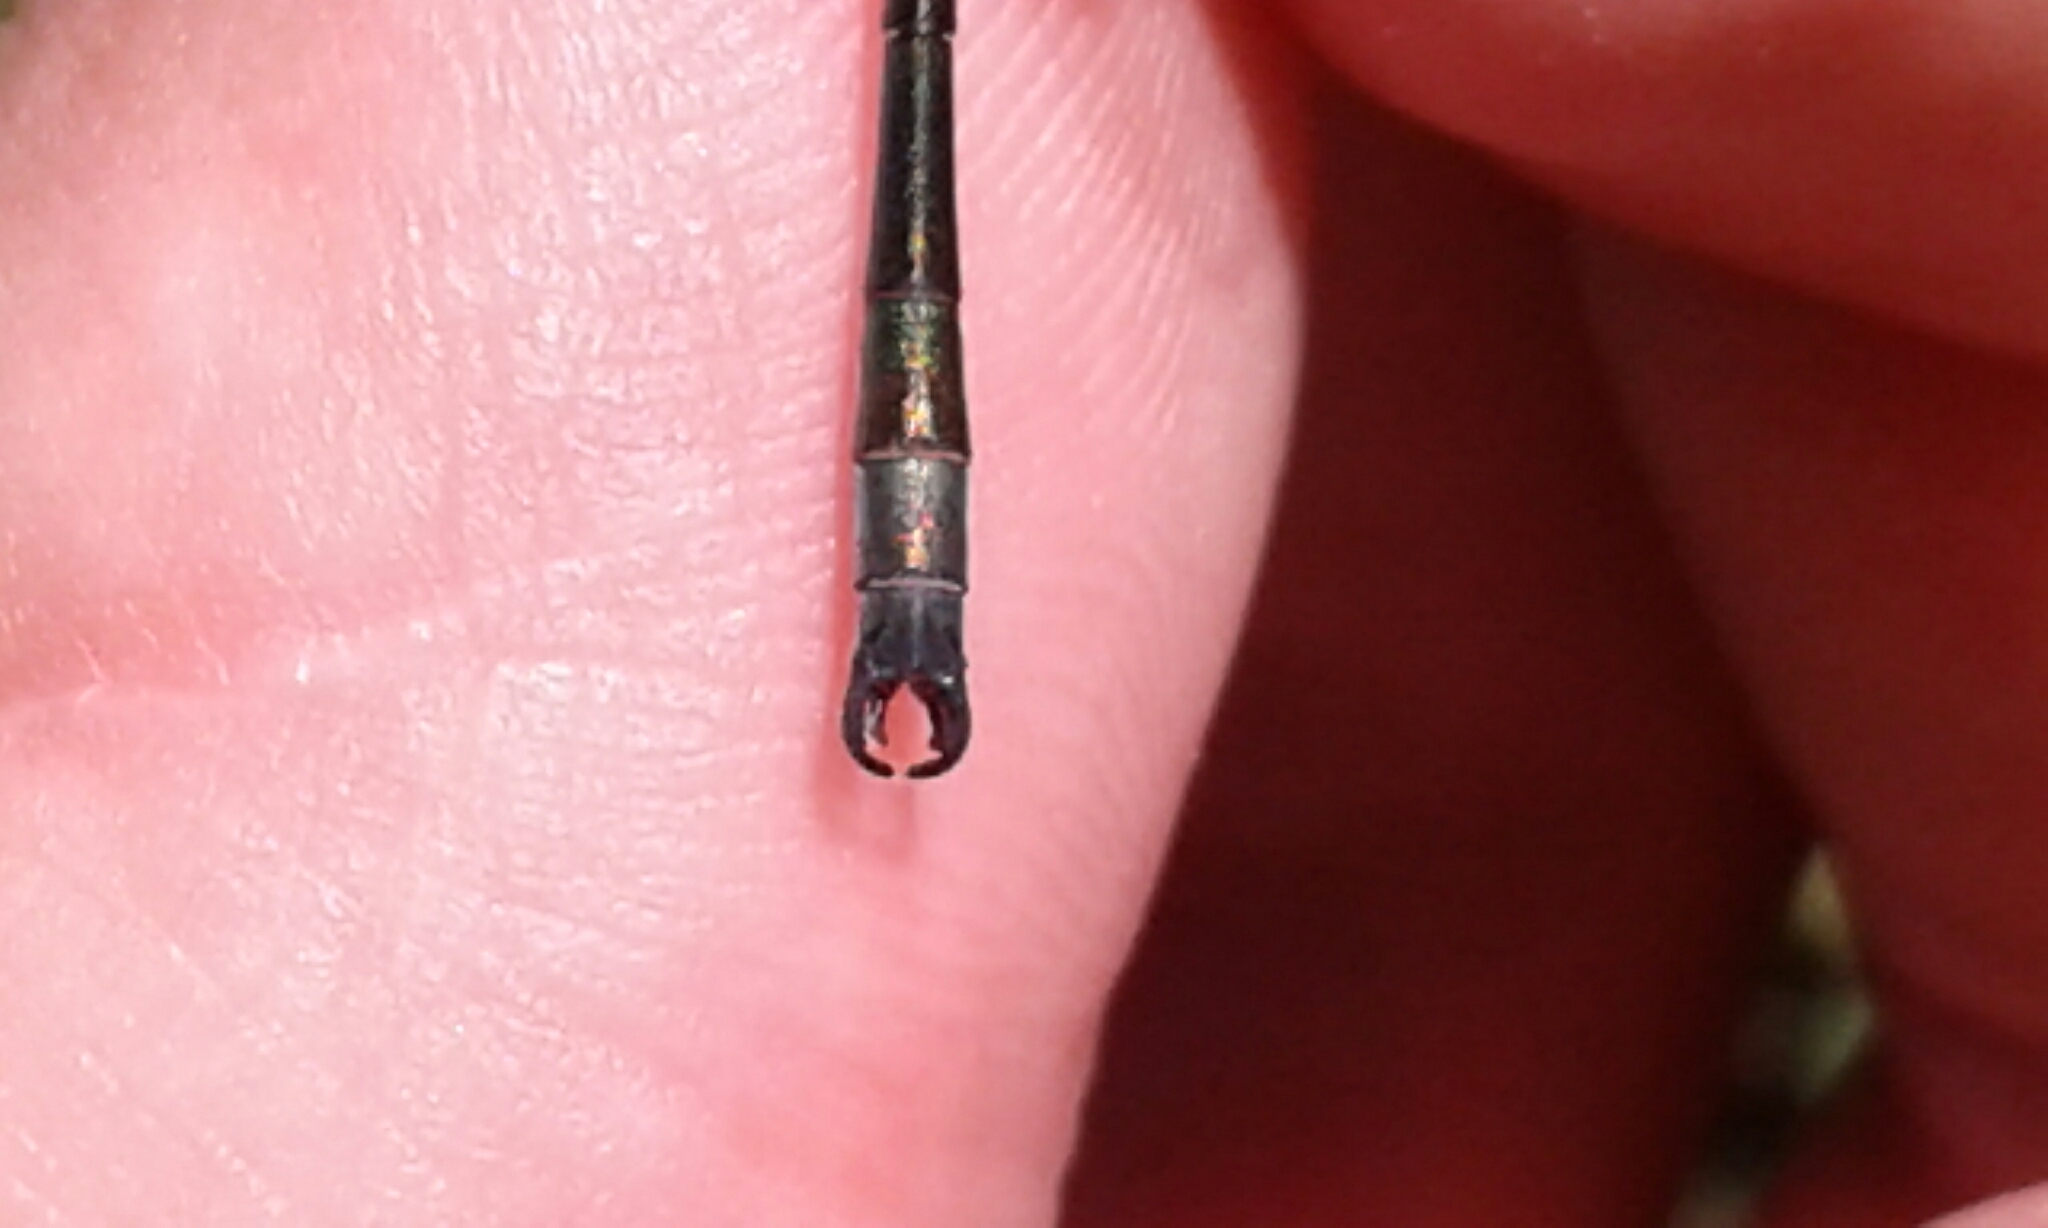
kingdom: Animalia
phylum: Arthropoda
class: Insecta
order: Odonata
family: Lestidae
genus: Lestes
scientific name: Lestes dryas
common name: Scarce emerald damselfly
